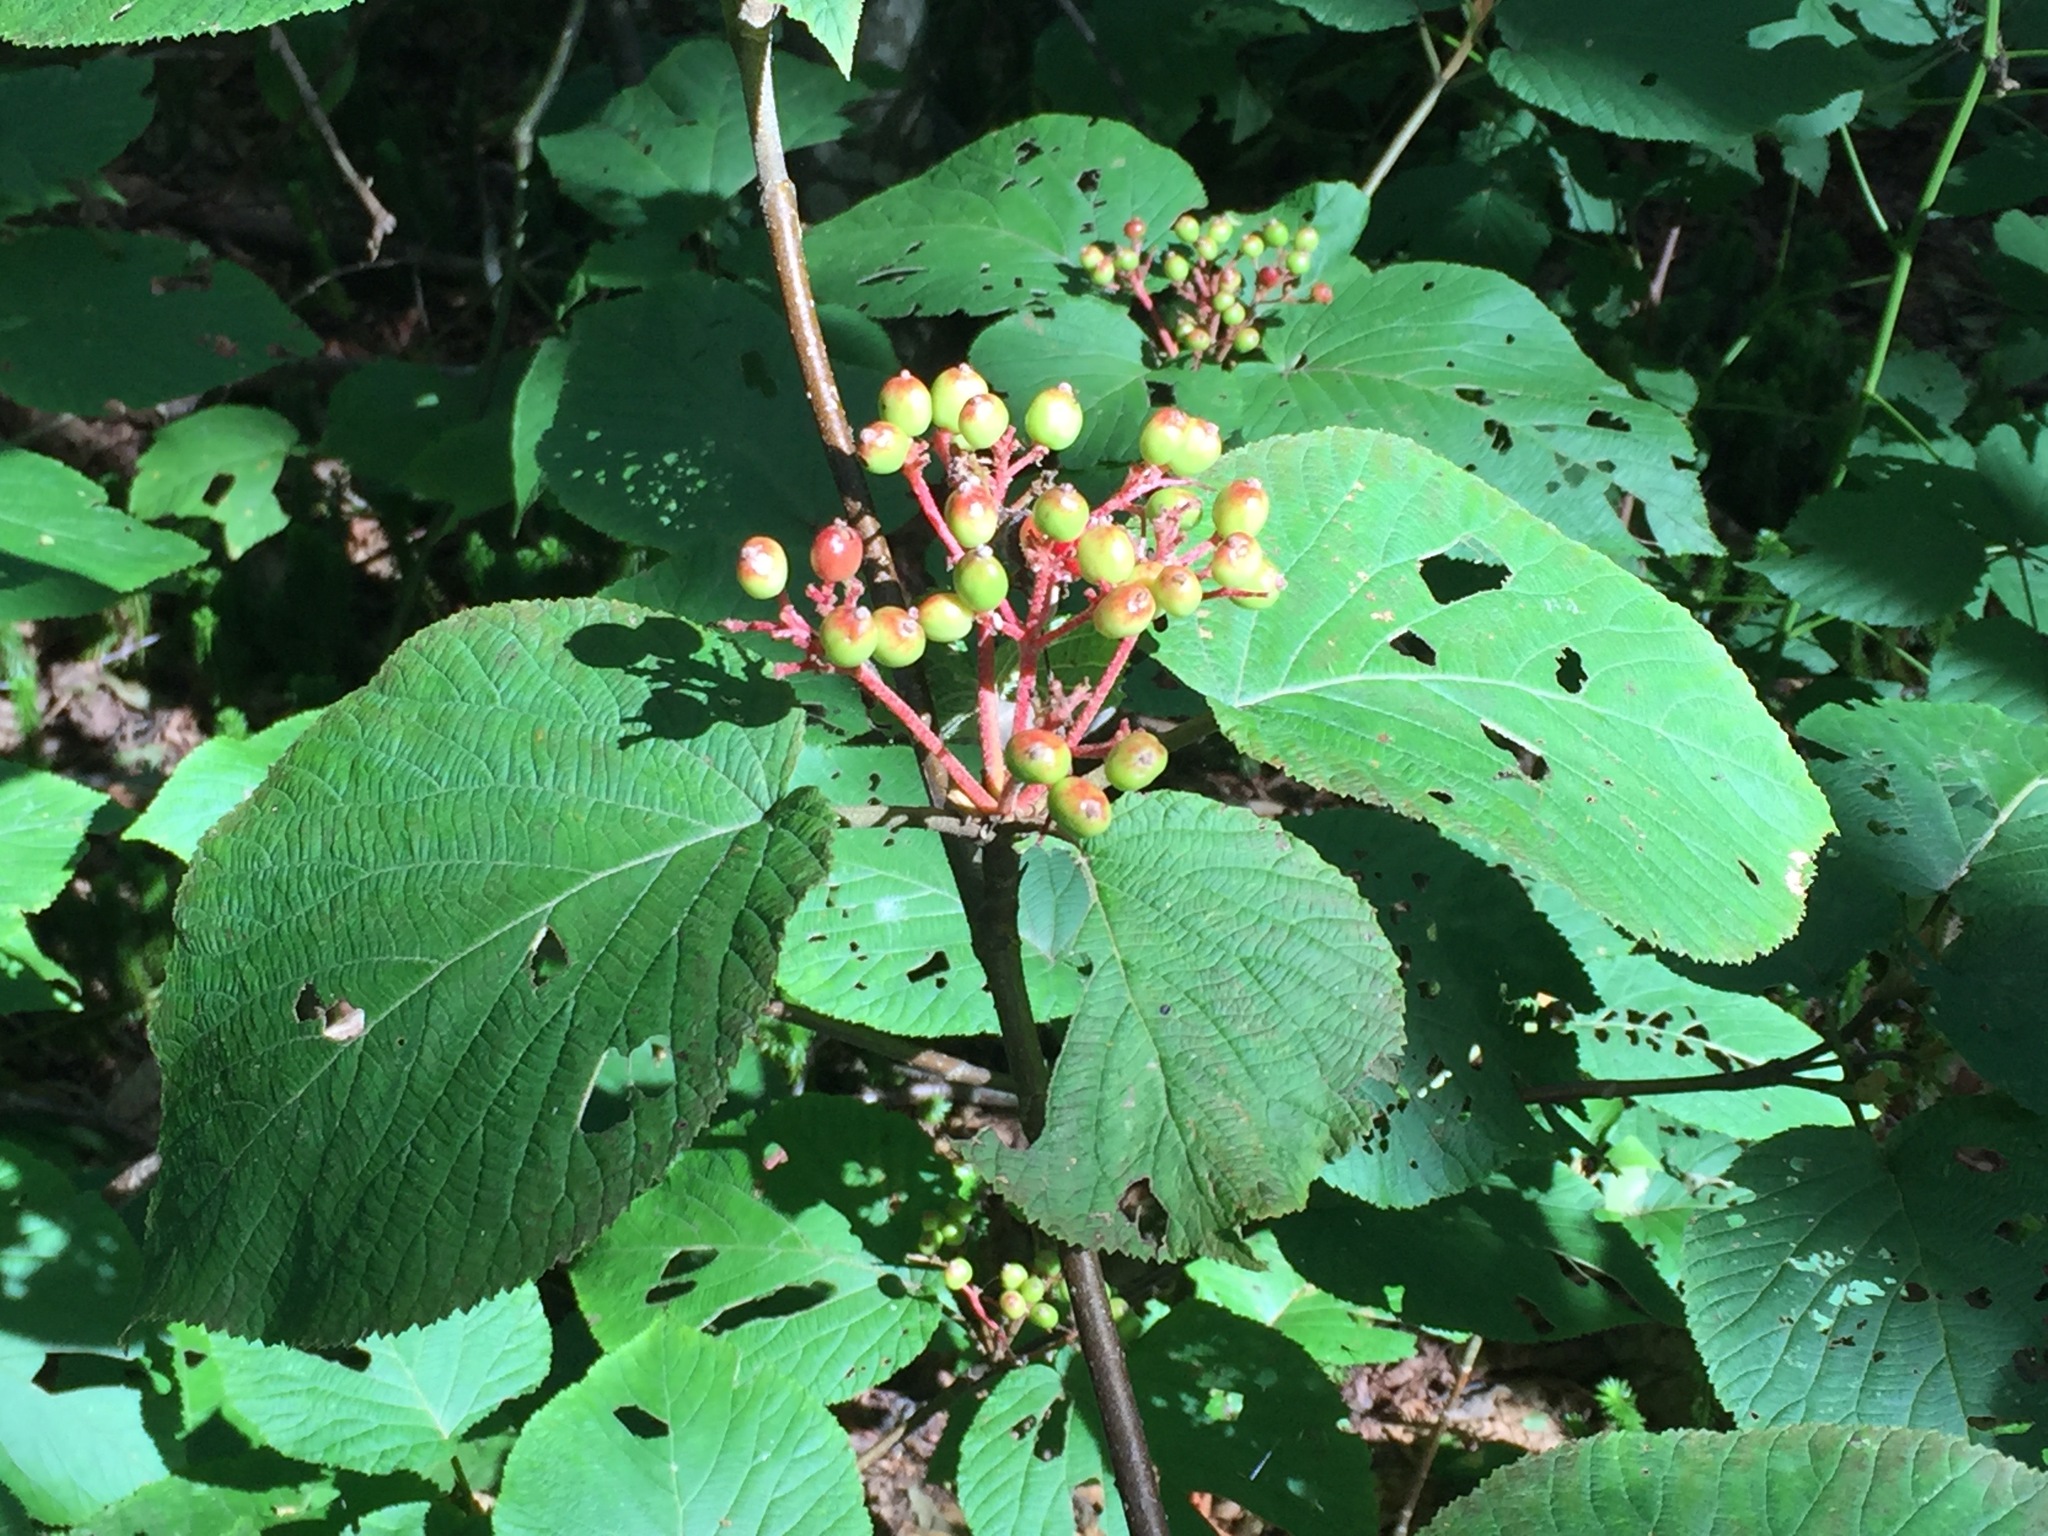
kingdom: Plantae
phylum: Tracheophyta
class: Magnoliopsida
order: Dipsacales
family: Viburnaceae
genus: Viburnum
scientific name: Viburnum lantanoides
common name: Hobblebush
